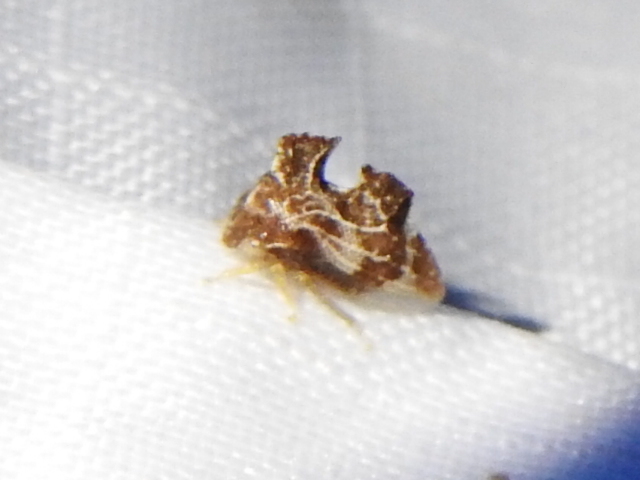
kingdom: Animalia
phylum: Arthropoda
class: Insecta
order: Hemiptera
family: Membracidae
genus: Entylia
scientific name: Entylia carinata
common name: Keeled treehopper
